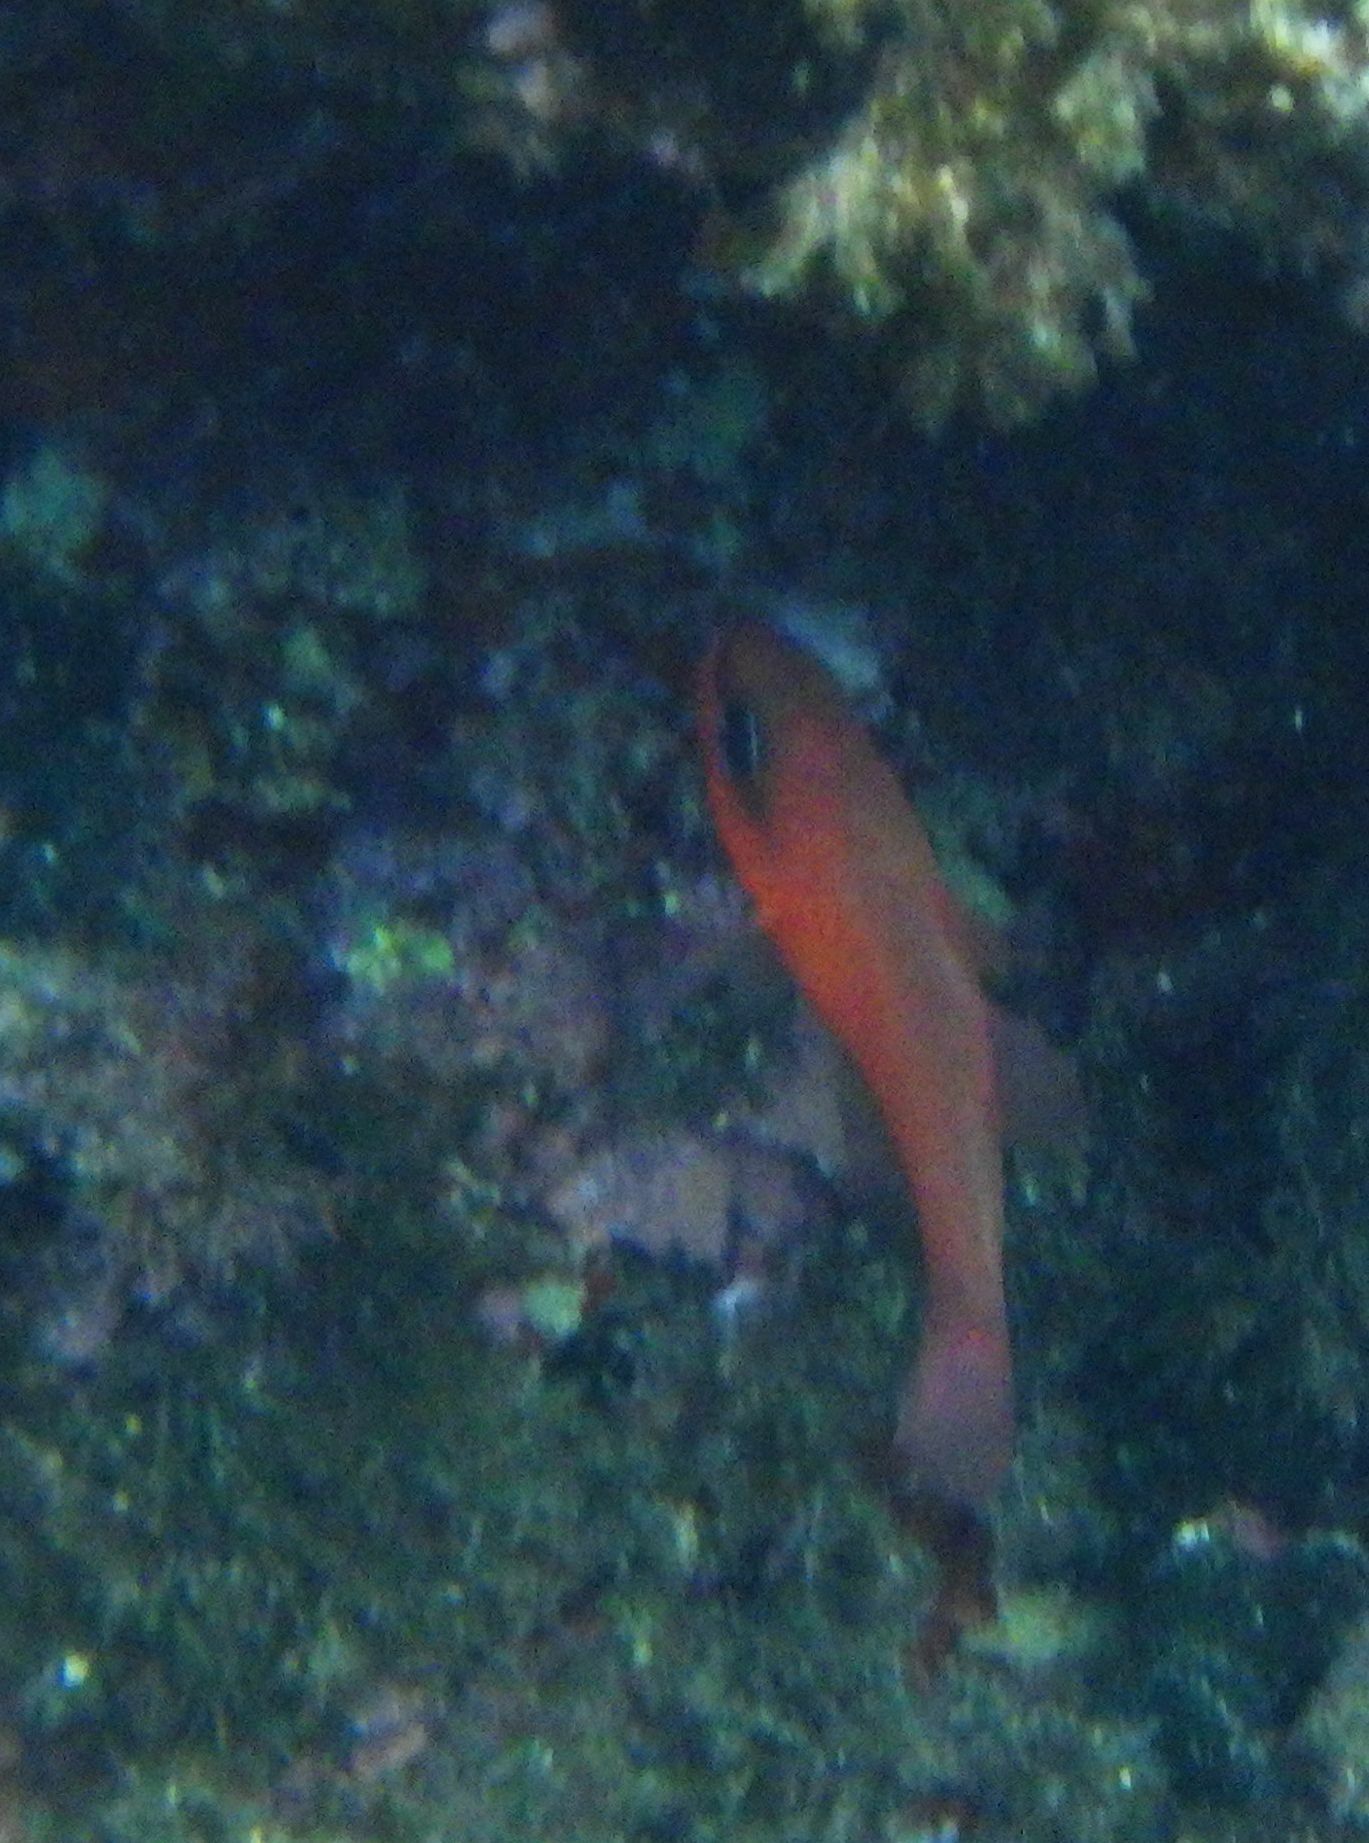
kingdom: Animalia
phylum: Chordata
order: Perciformes
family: Apogonidae
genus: Apogon
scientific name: Apogon imberbis
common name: Cardinal fish
